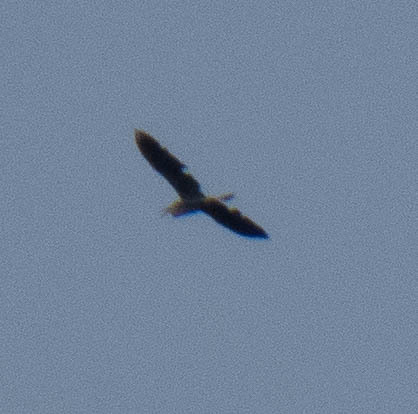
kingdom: Animalia
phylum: Chordata
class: Aves
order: Pelecaniformes
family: Ardeidae
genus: Ardea
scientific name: Ardea herodias
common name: Great blue heron
